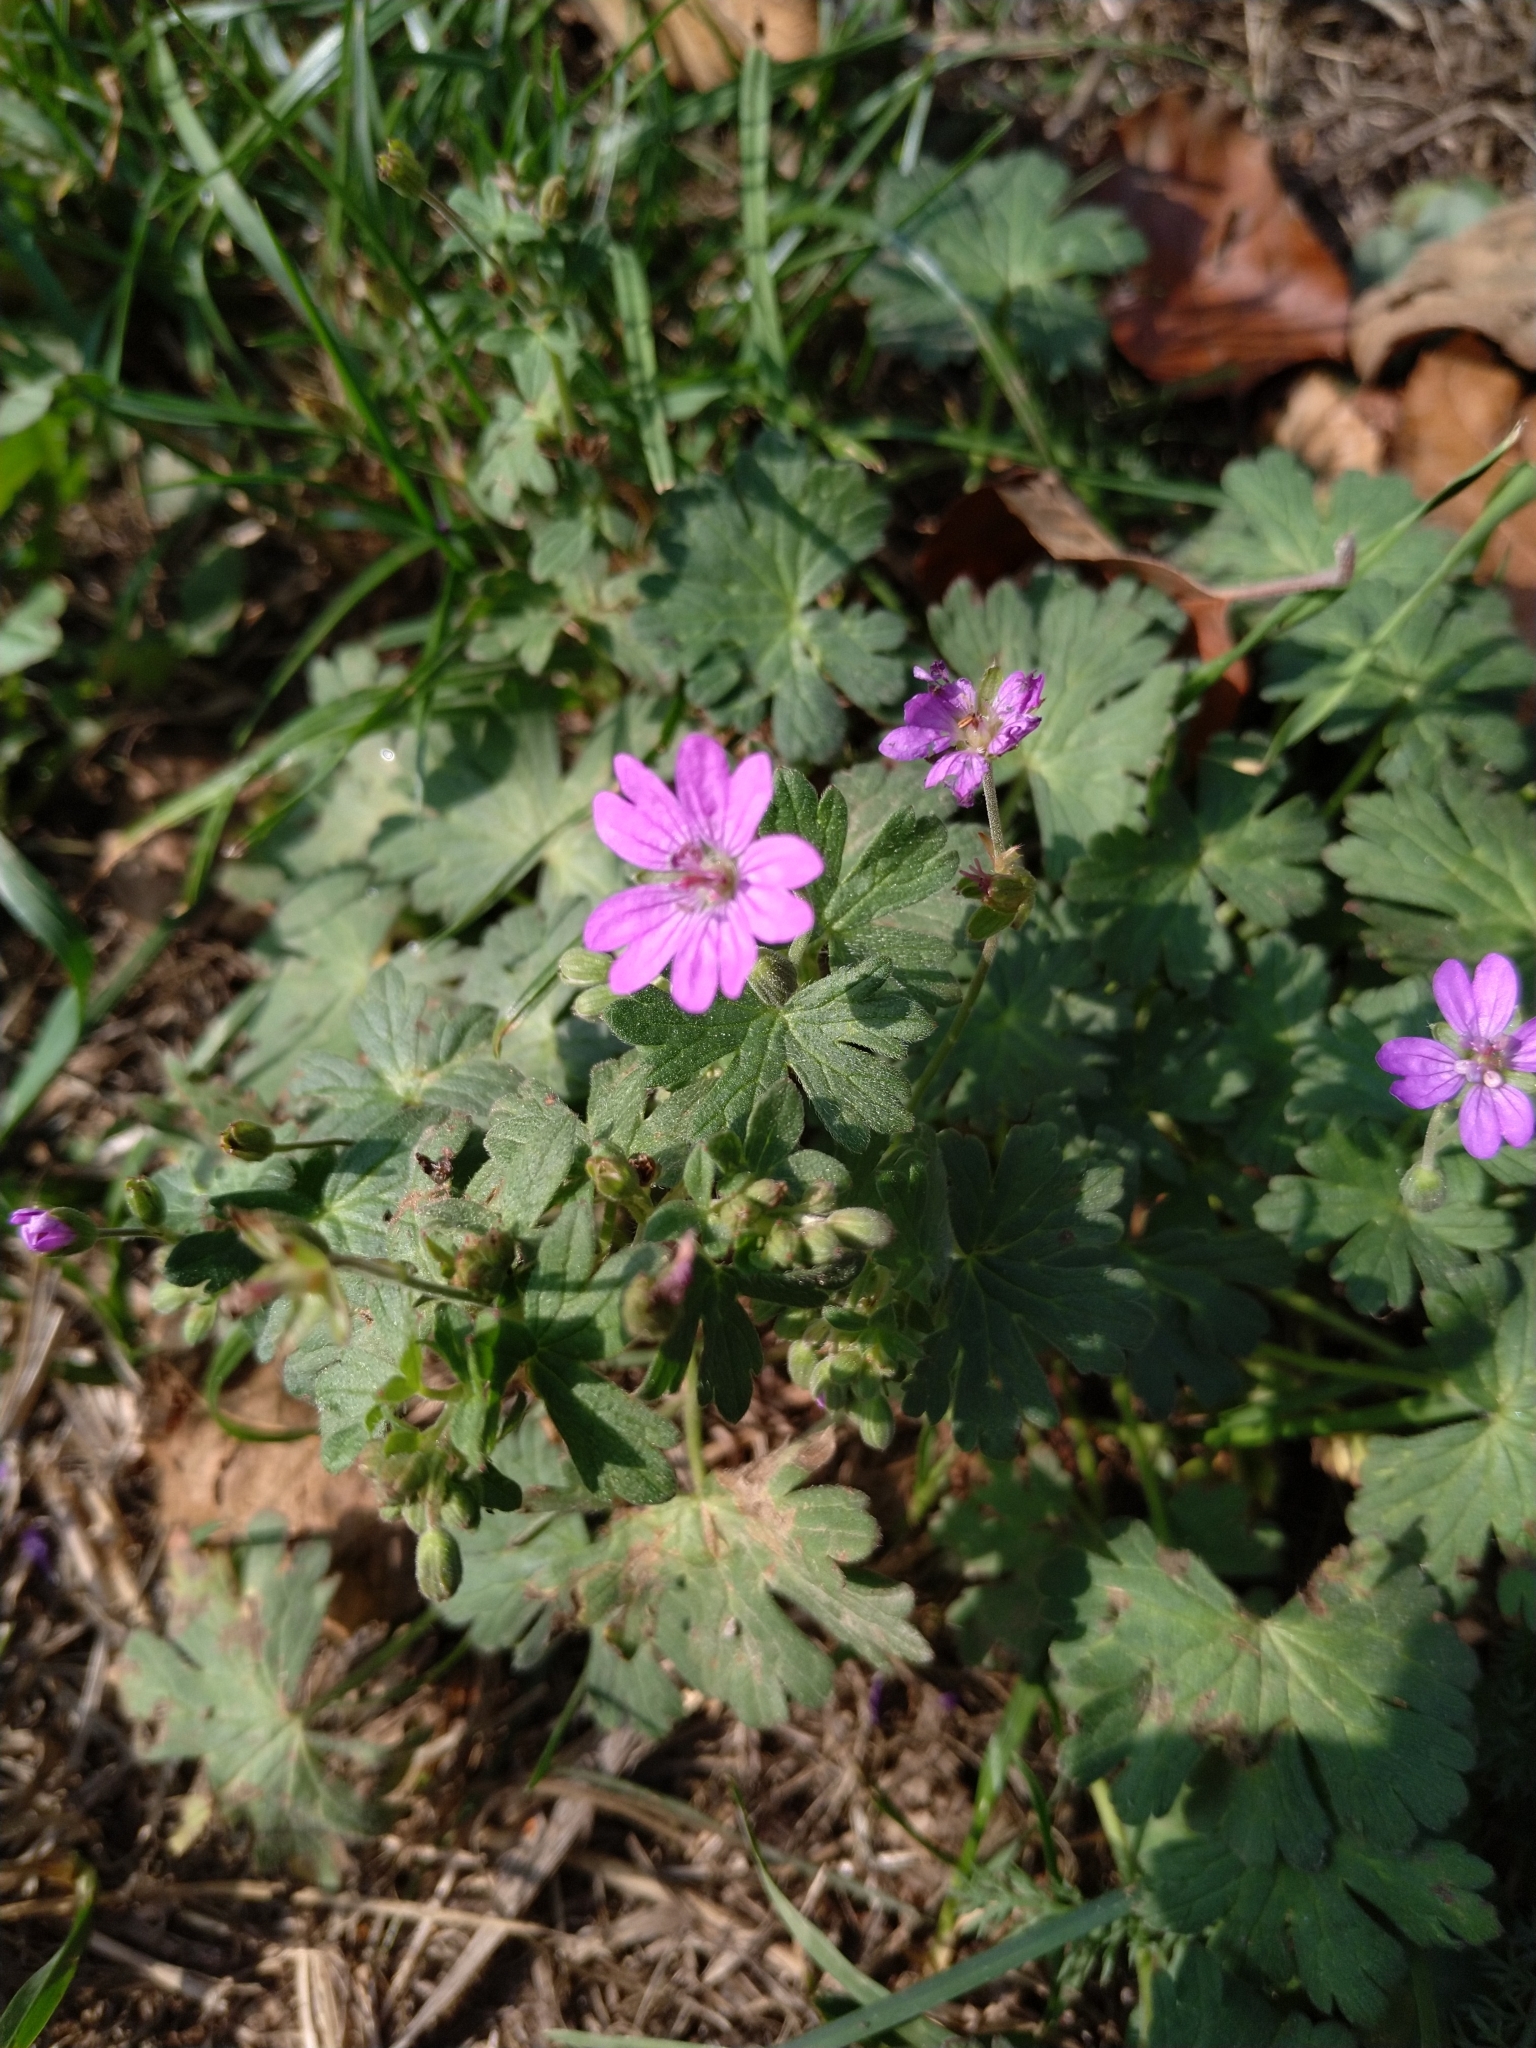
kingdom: Plantae
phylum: Tracheophyta
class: Magnoliopsida
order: Geraniales
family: Geraniaceae
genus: Geranium
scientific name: Geranium molle
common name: Dove's-foot crane's-bill
